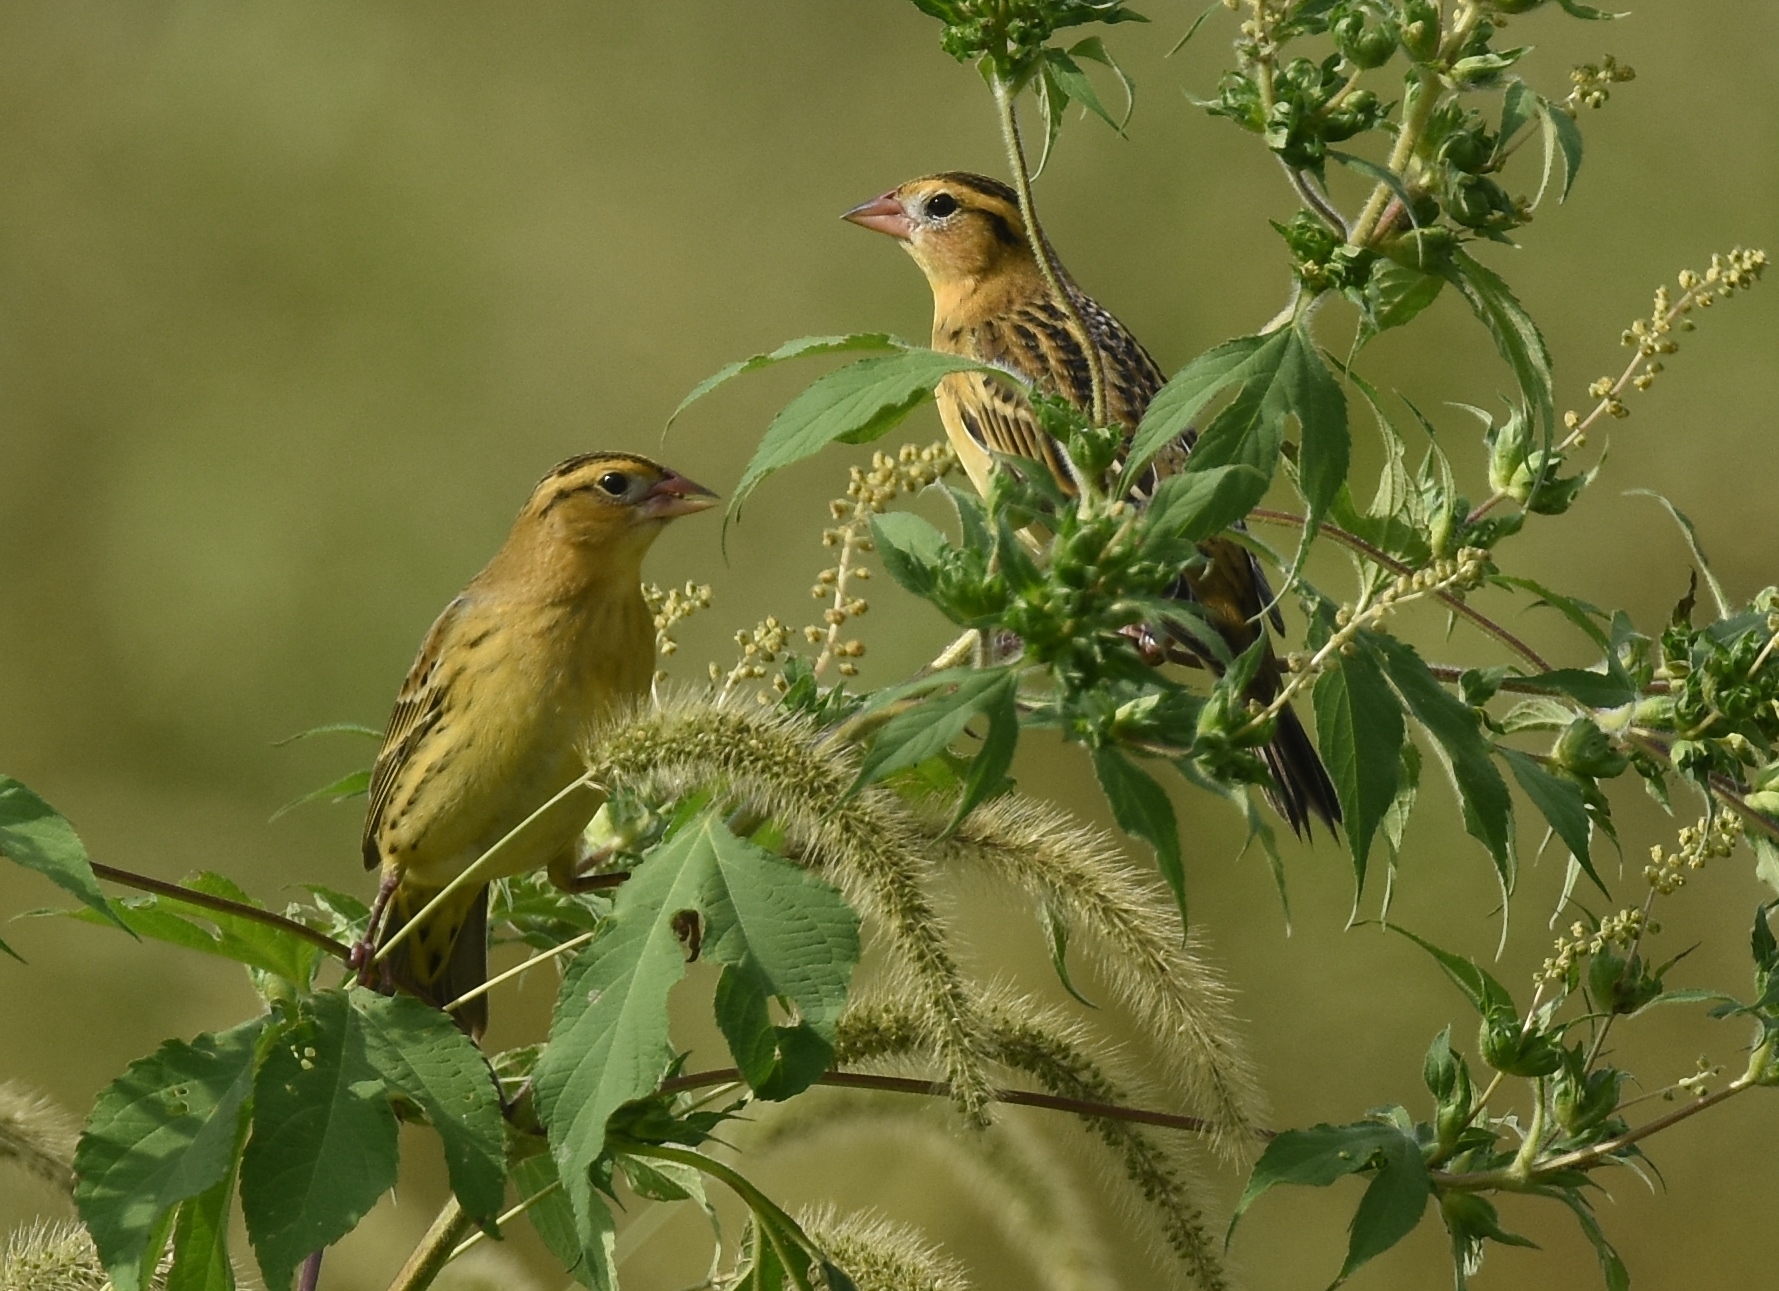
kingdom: Animalia
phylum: Chordata
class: Aves
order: Passeriformes
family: Icteridae
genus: Dolichonyx
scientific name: Dolichonyx oryzivorus
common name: Bobolink
